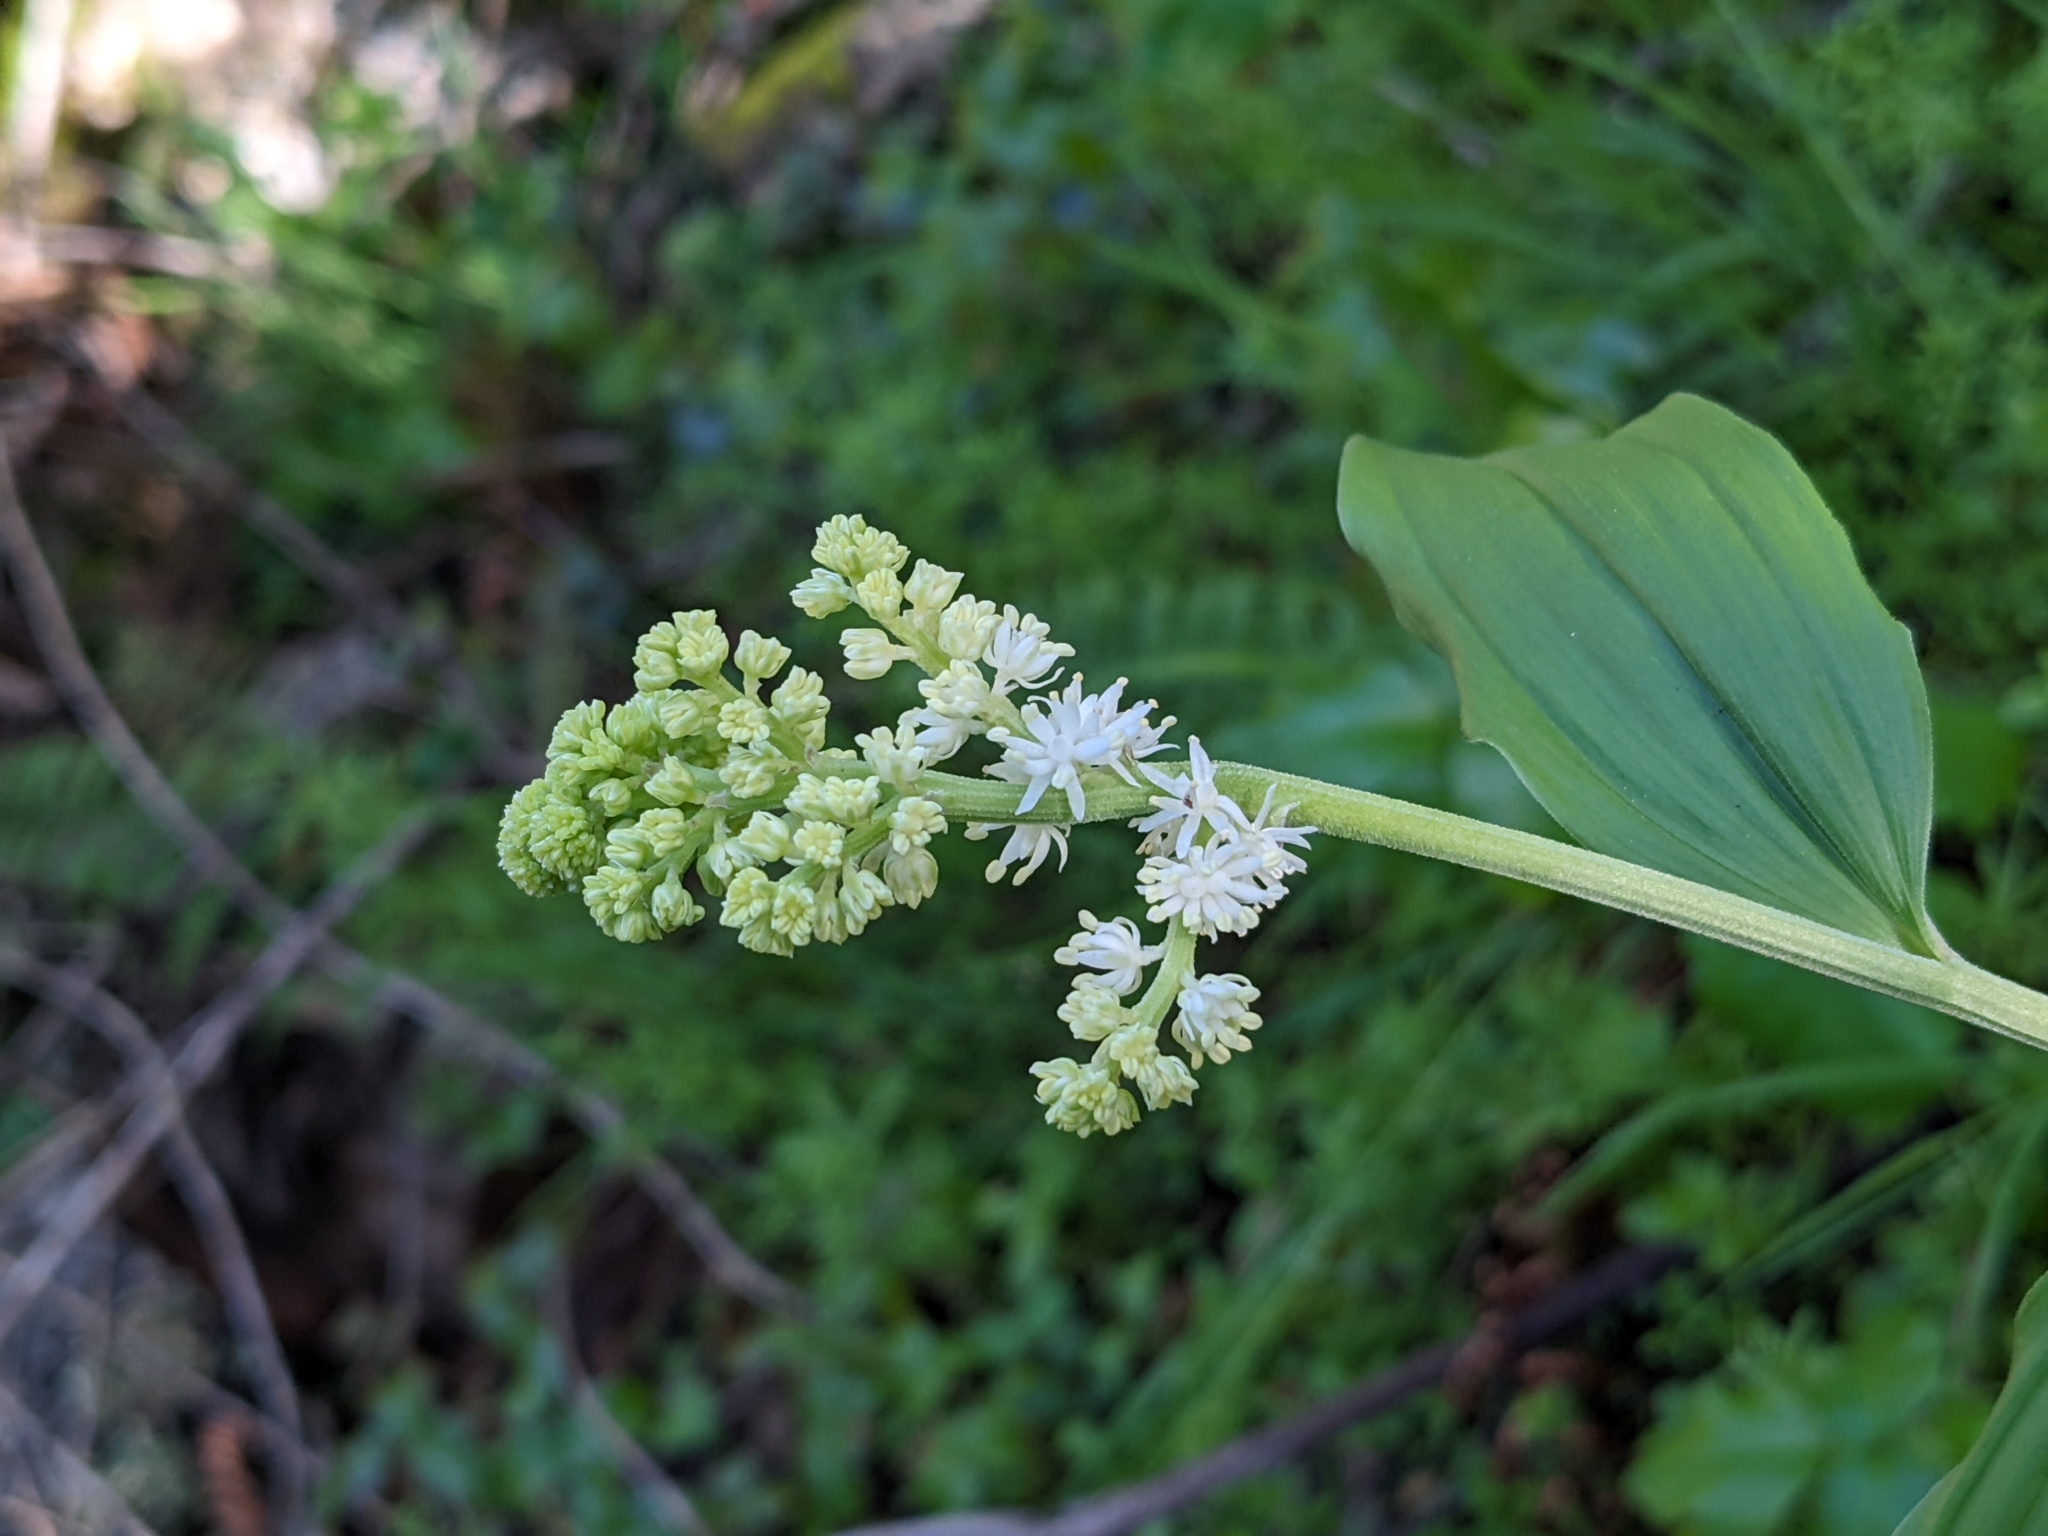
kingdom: Plantae
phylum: Tracheophyta
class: Liliopsida
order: Asparagales
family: Asparagaceae
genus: Maianthemum
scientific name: Maianthemum racemosum
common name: False spikenard
